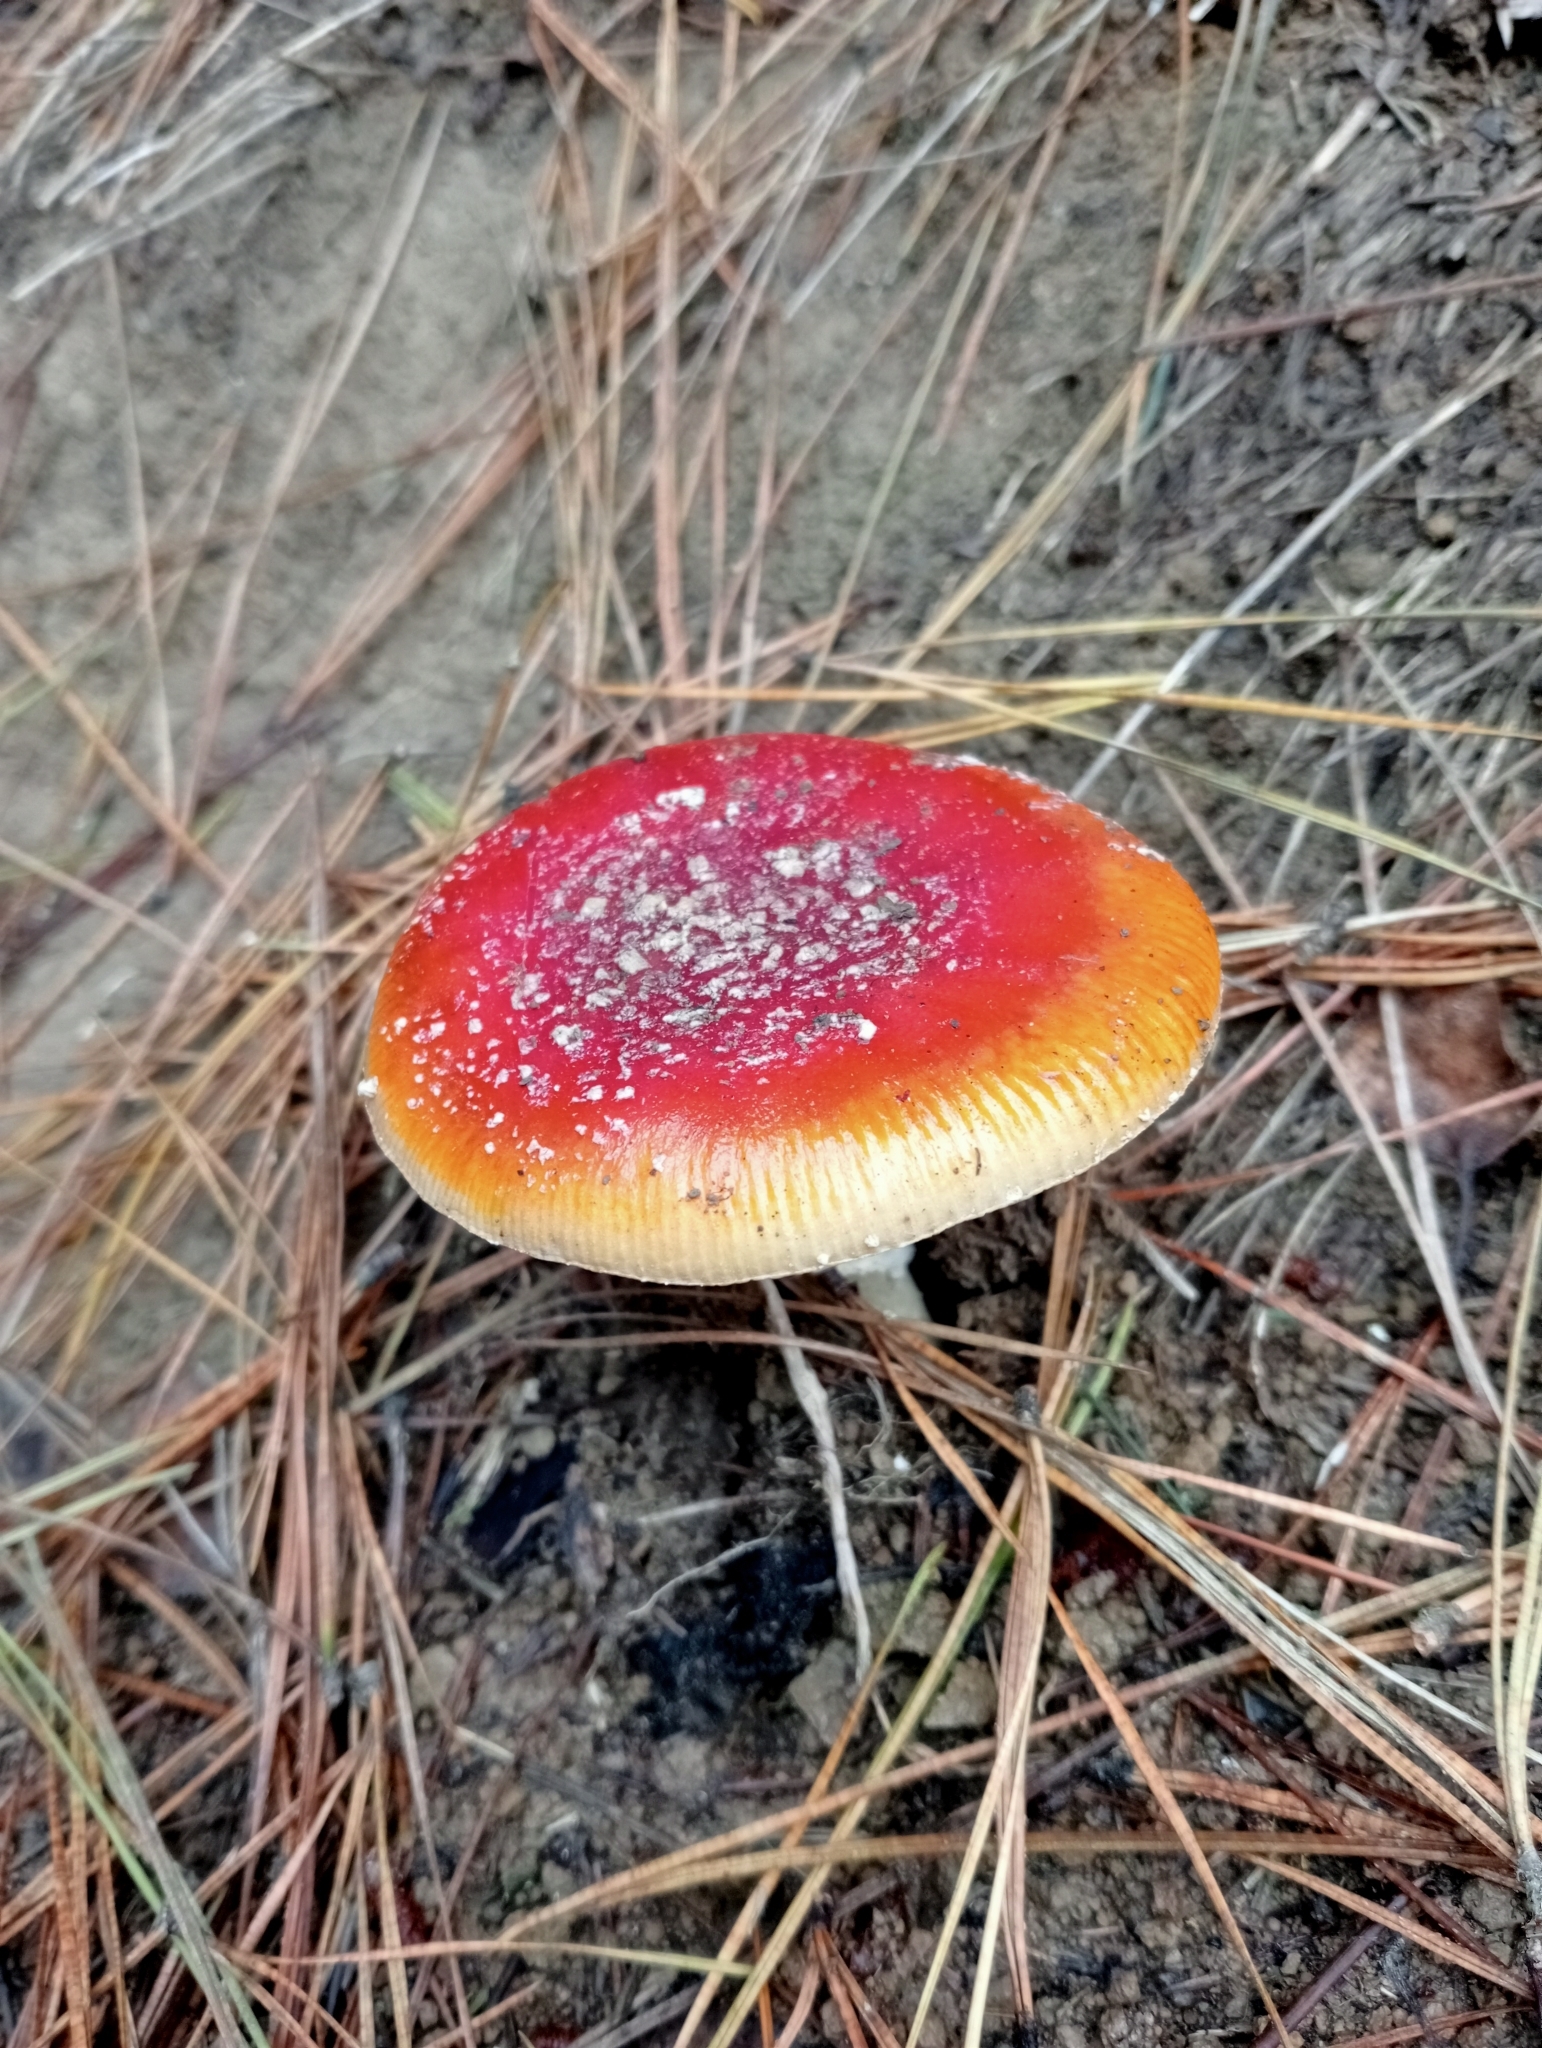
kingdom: Fungi
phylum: Basidiomycota
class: Agaricomycetes
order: Agaricales
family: Amanitaceae
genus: Amanita
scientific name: Amanita muscaria
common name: Fly agaric
